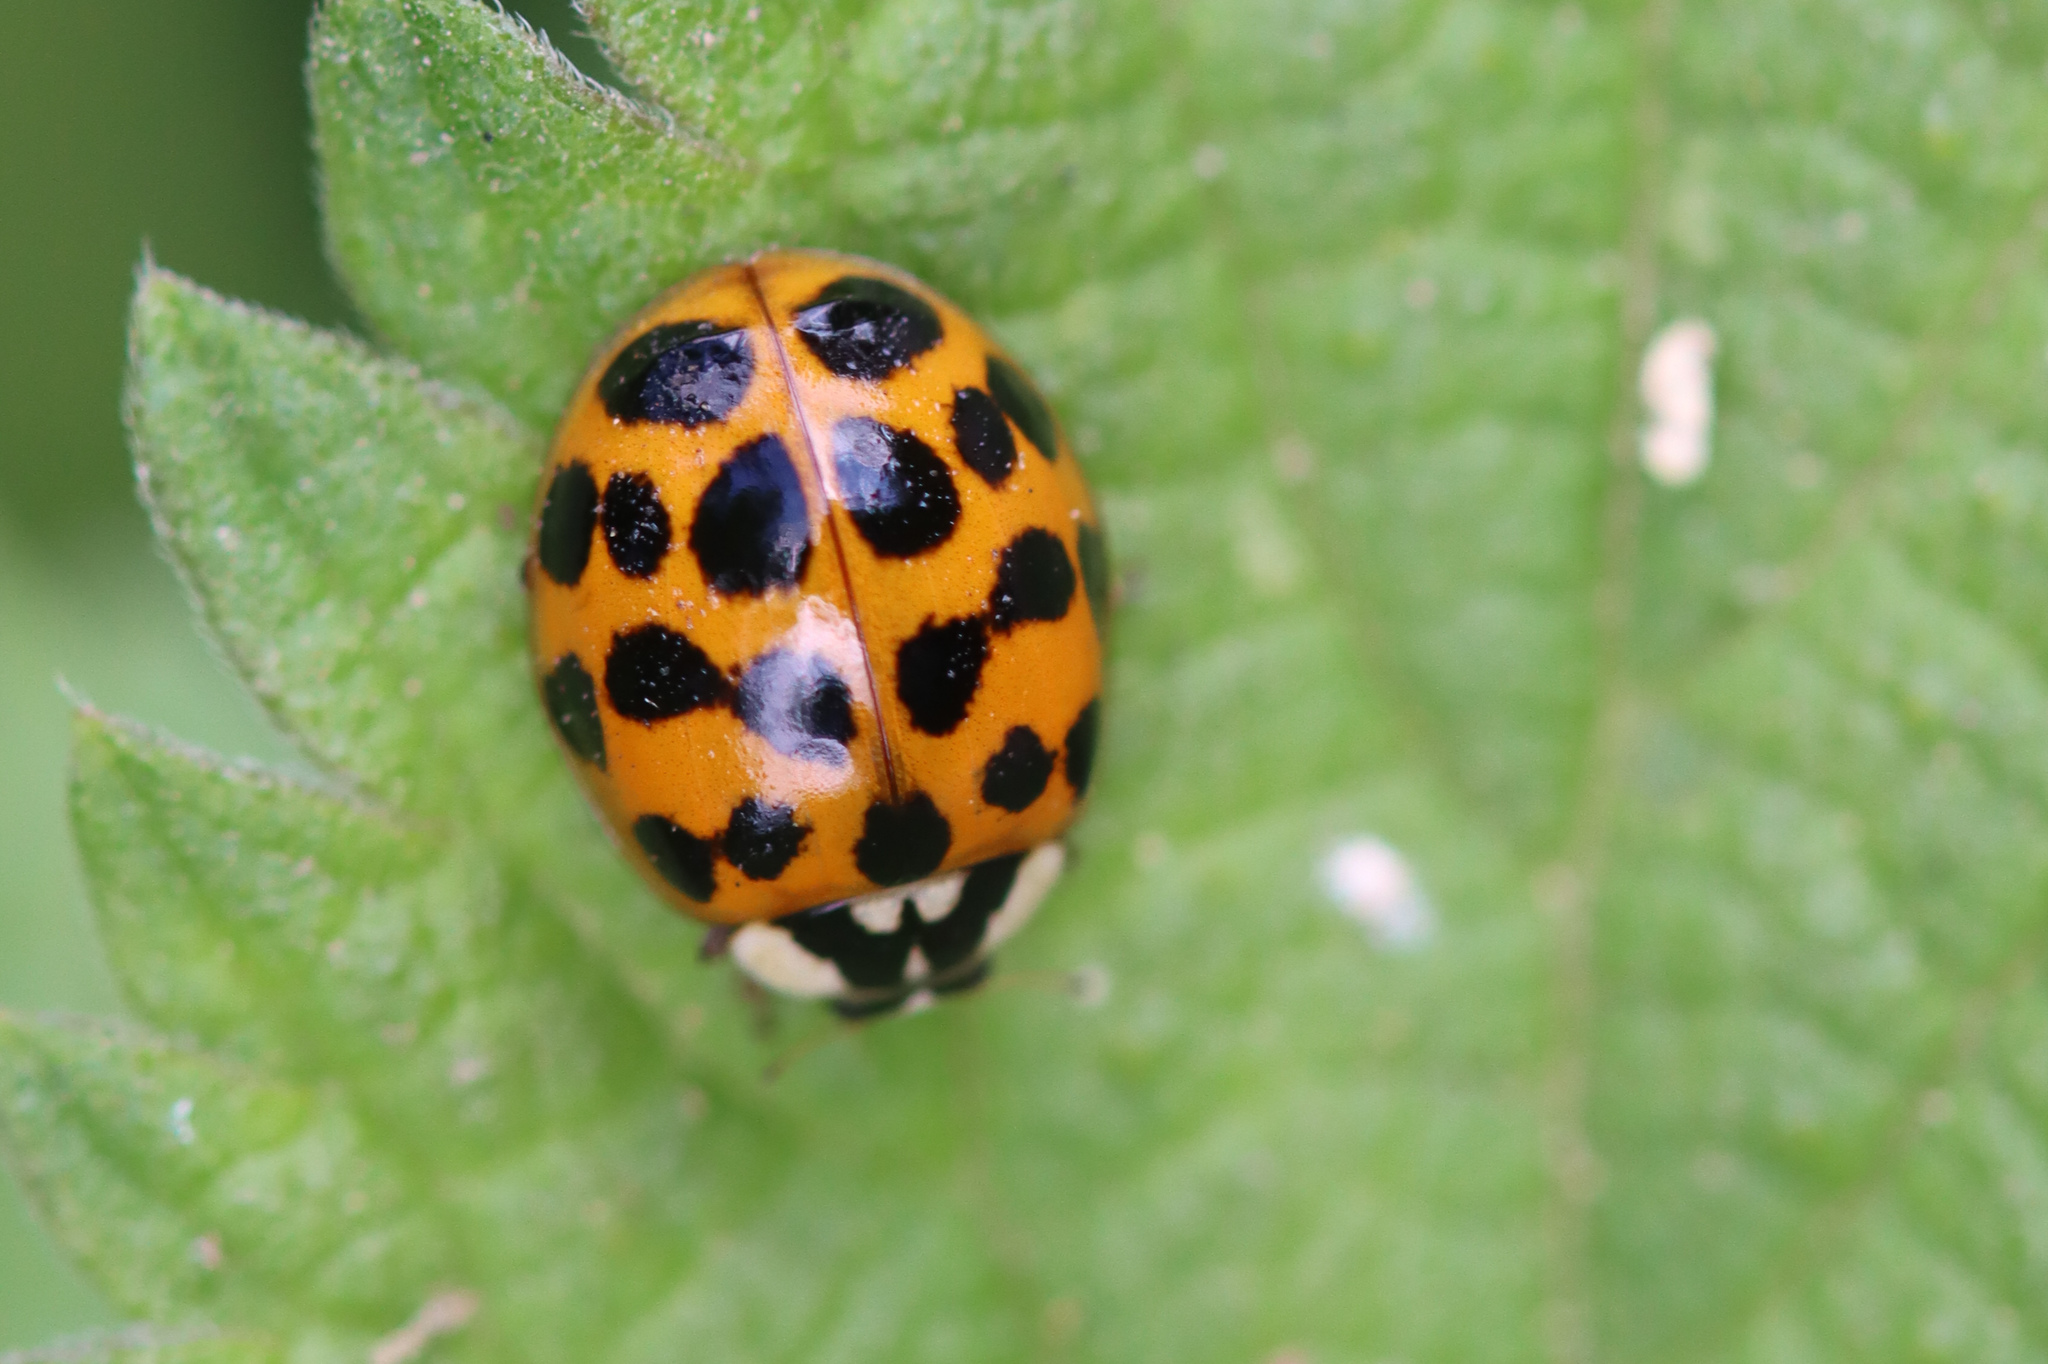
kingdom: Animalia
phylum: Arthropoda
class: Insecta
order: Coleoptera
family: Coccinellidae
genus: Harmonia
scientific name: Harmonia axyridis
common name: Harlequin ladybird
